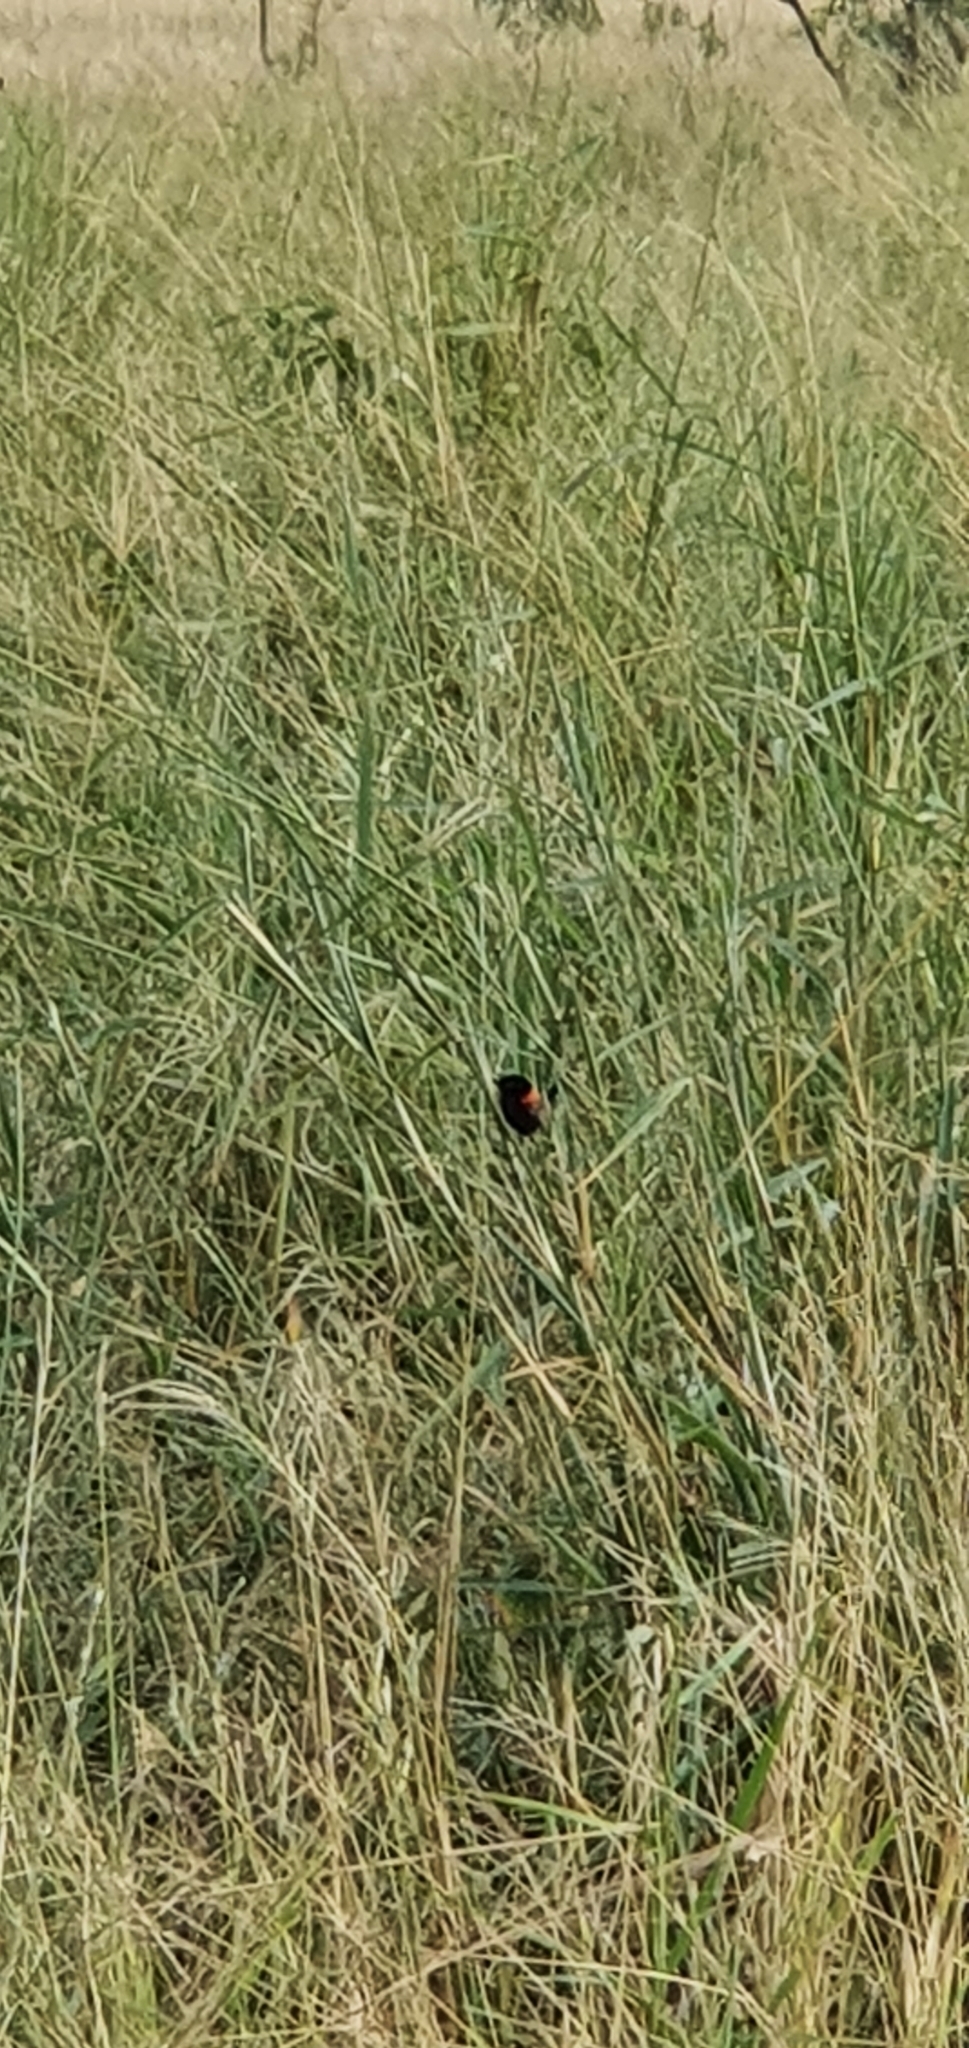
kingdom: Animalia
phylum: Chordata
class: Aves
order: Passeriformes
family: Maluridae
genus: Malurus
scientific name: Malurus melanocephalus
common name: Red-backed fairywren
